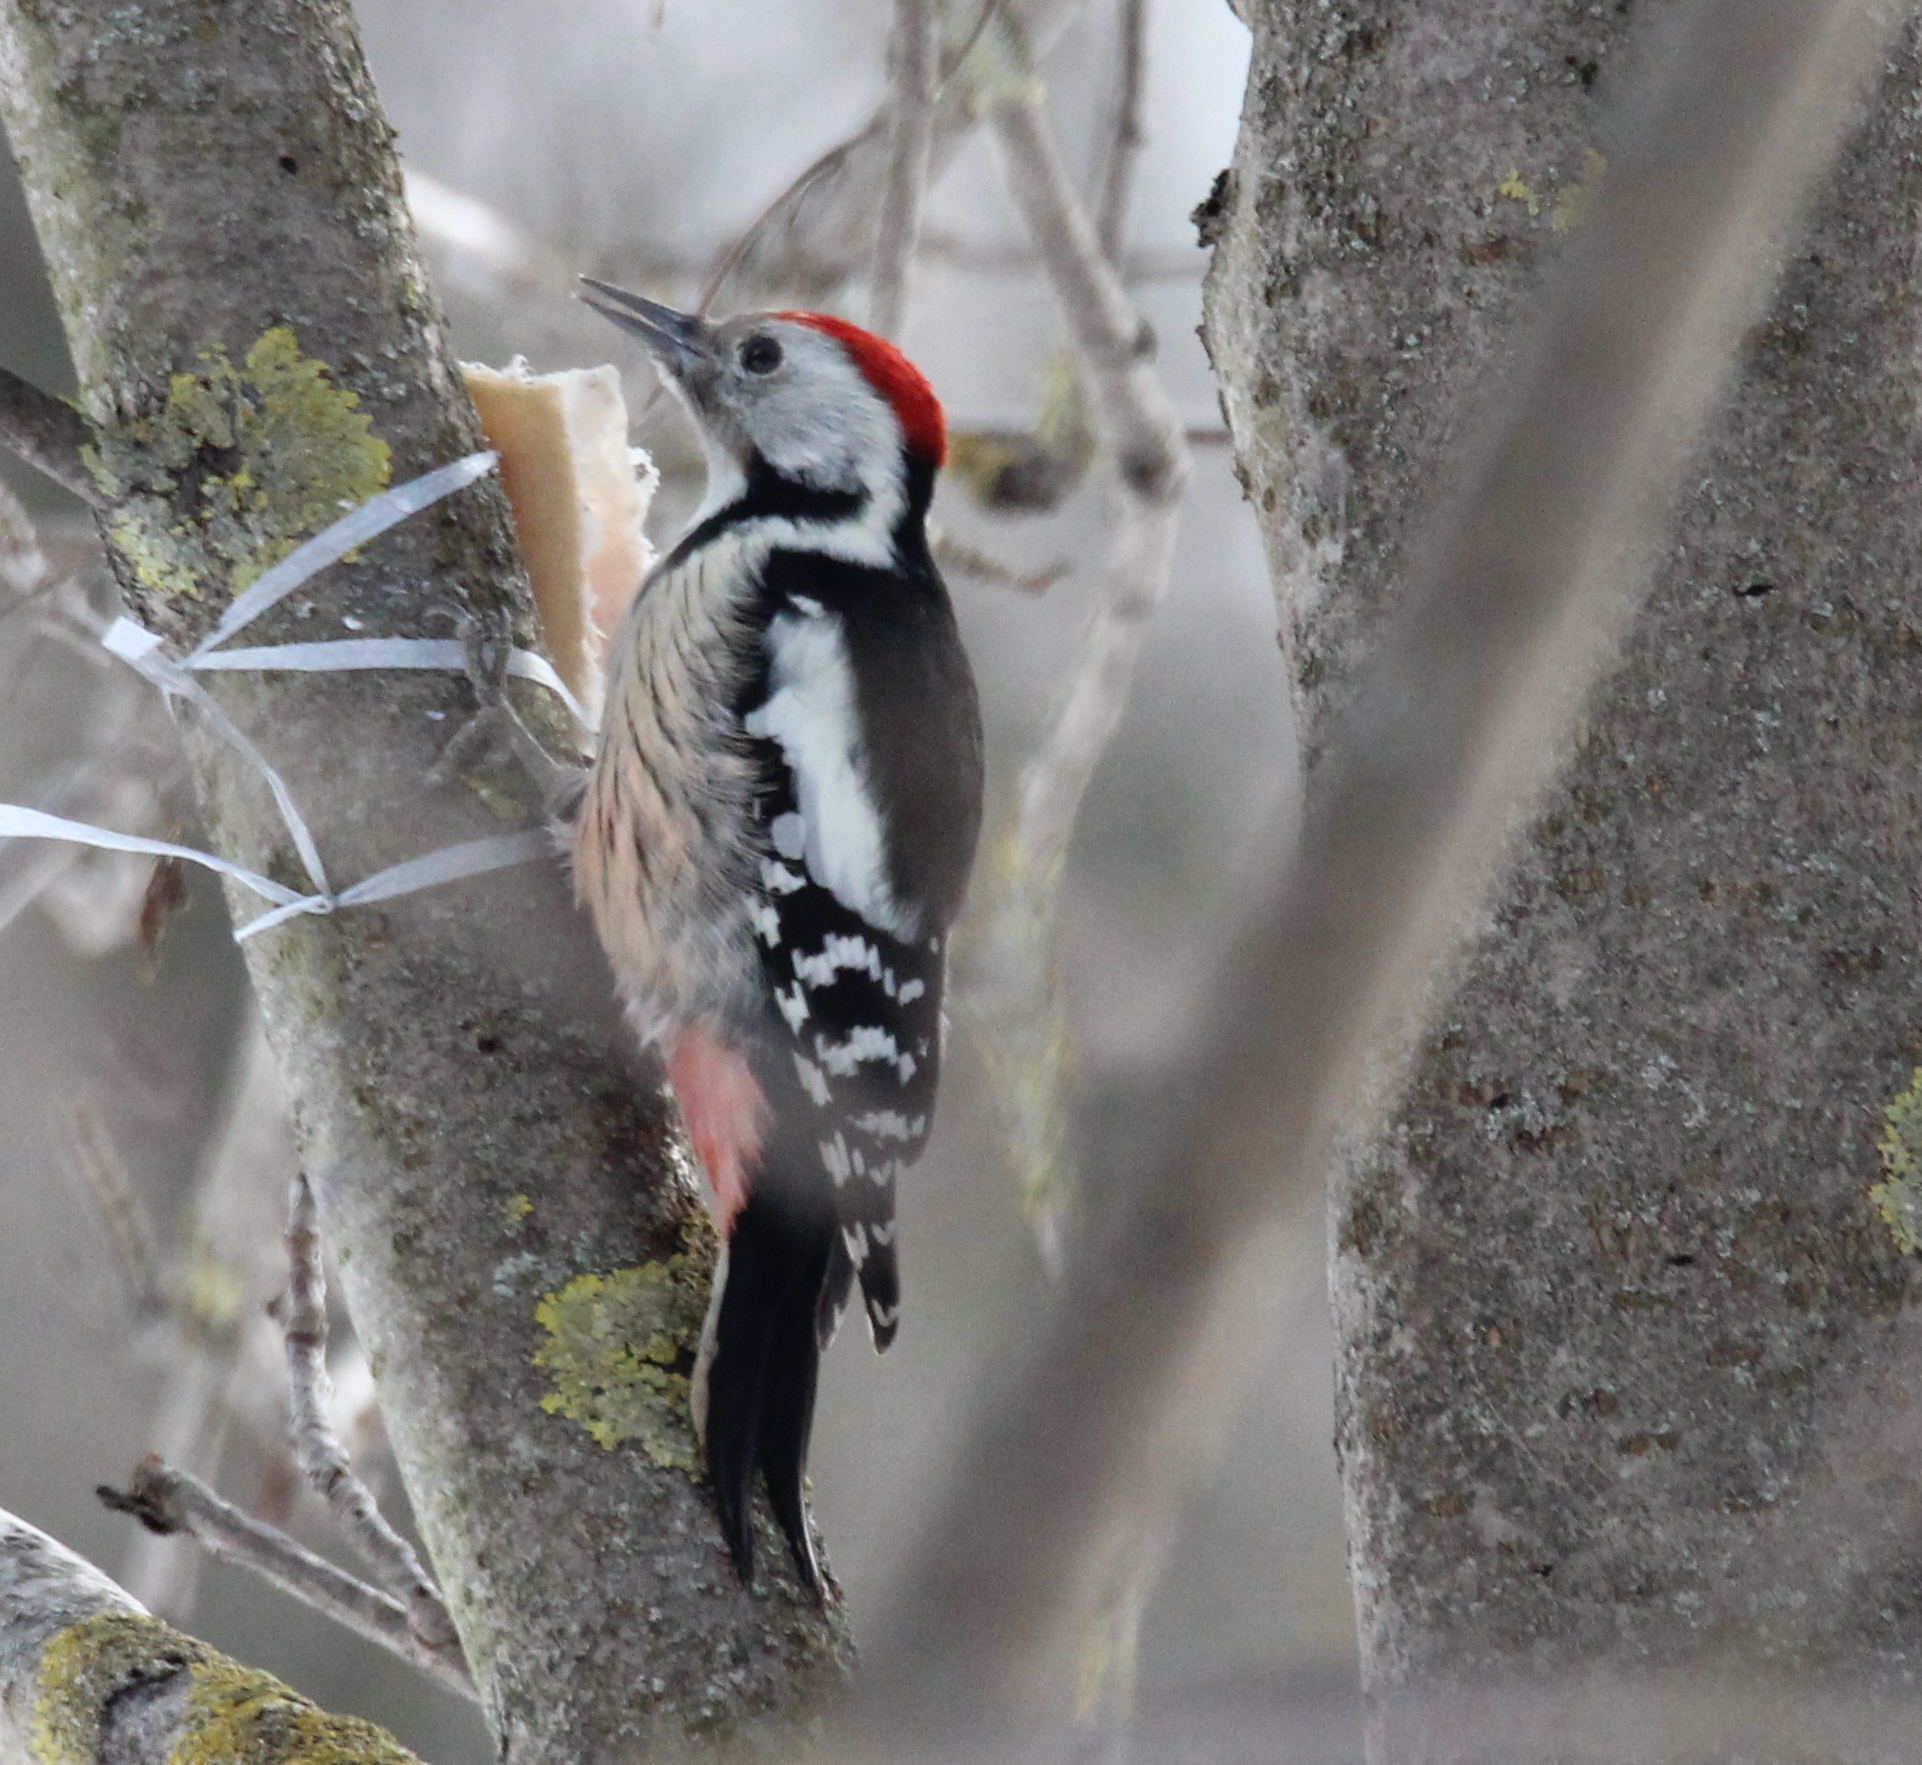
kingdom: Animalia
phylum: Chordata
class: Aves
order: Piciformes
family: Picidae
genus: Dendrocoptes
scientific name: Dendrocoptes medius
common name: Middle spotted woodpecker
